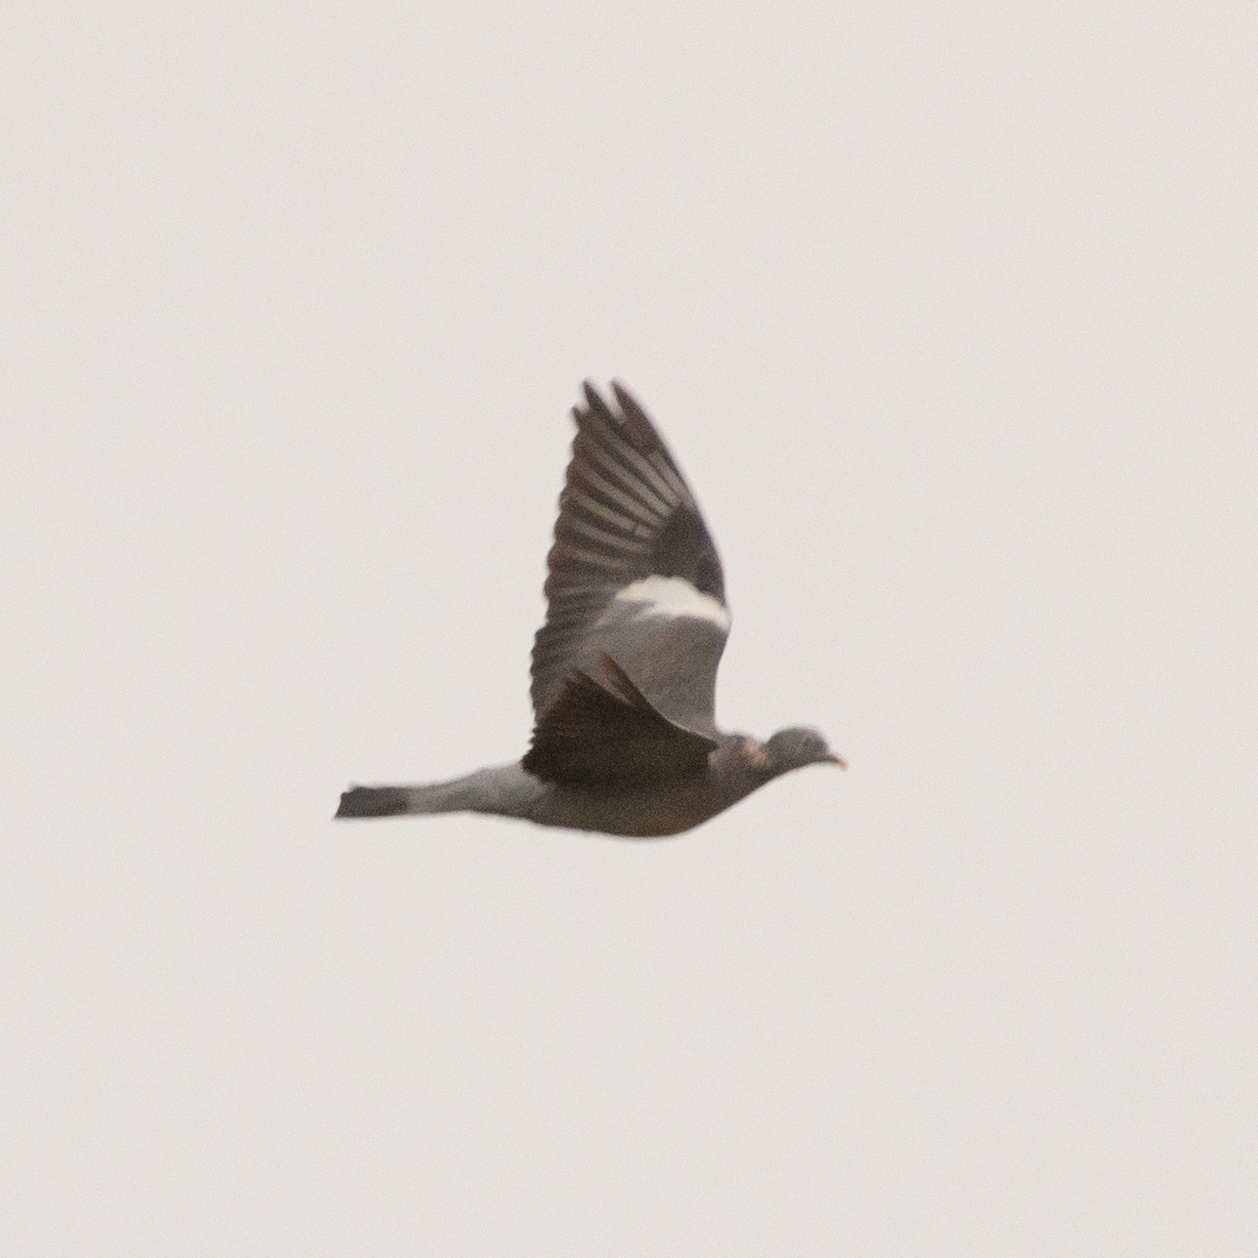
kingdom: Animalia
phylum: Chordata
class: Aves
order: Columbiformes
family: Columbidae
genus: Columba
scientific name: Columba palumbus
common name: Common wood pigeon
